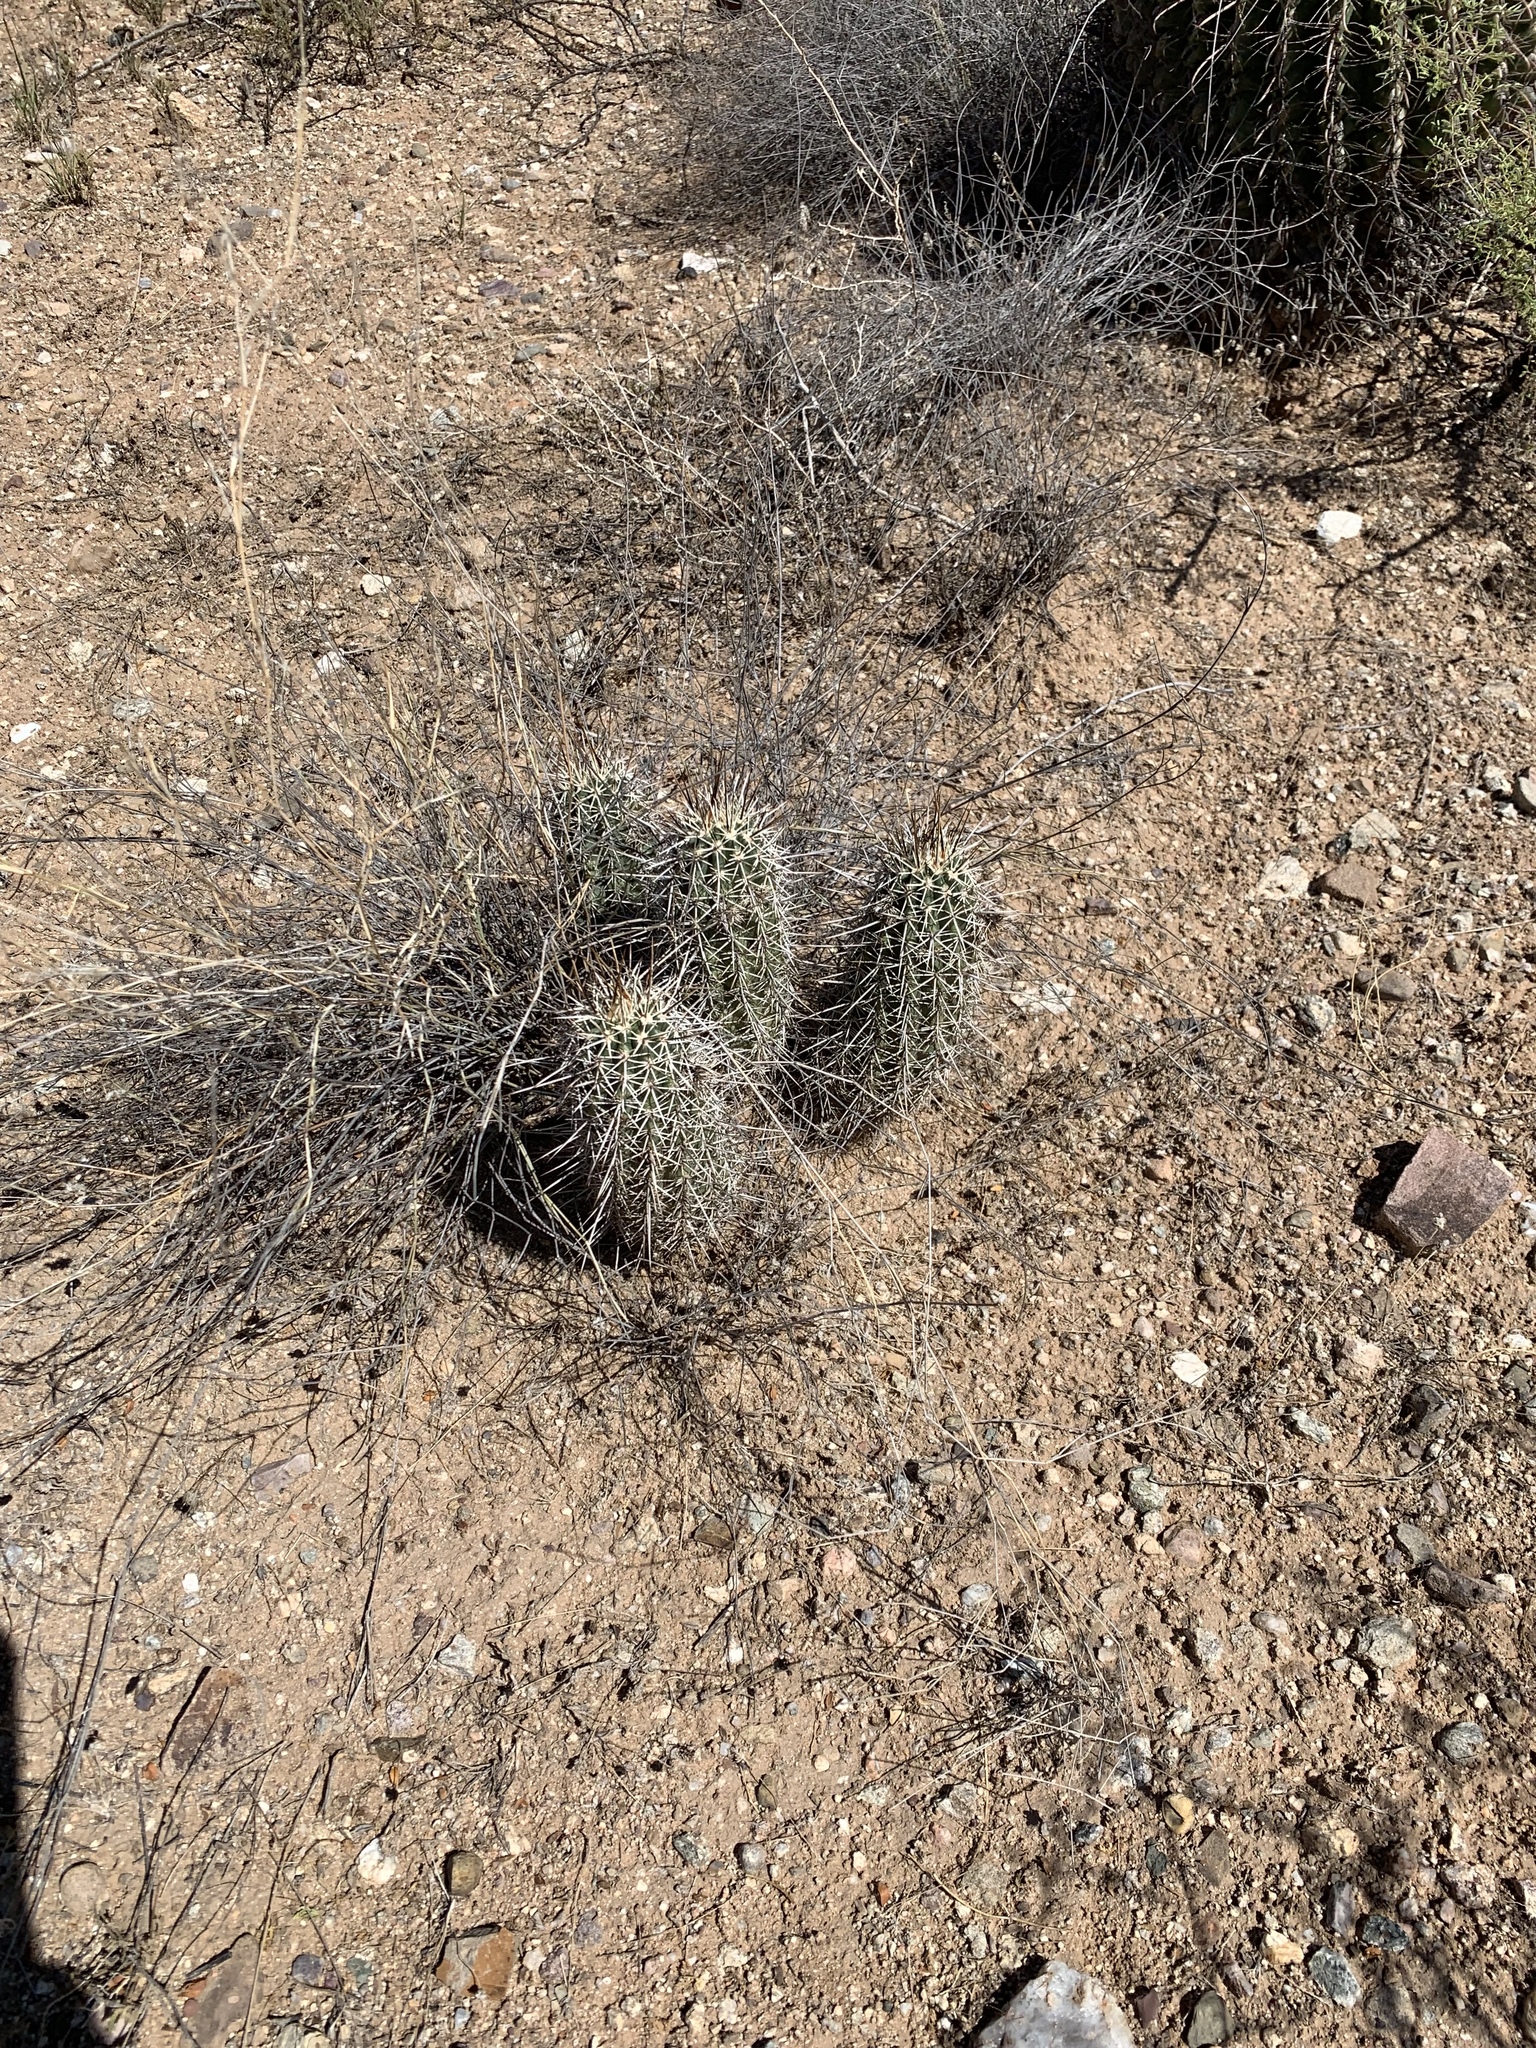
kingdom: Plantae
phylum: Tracheophyta
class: Magnoliopsida
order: Caryophyllales
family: Cactaceae
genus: Echinocereus
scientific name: Echinocereus fasciculatus
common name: Bundle hedgehog
